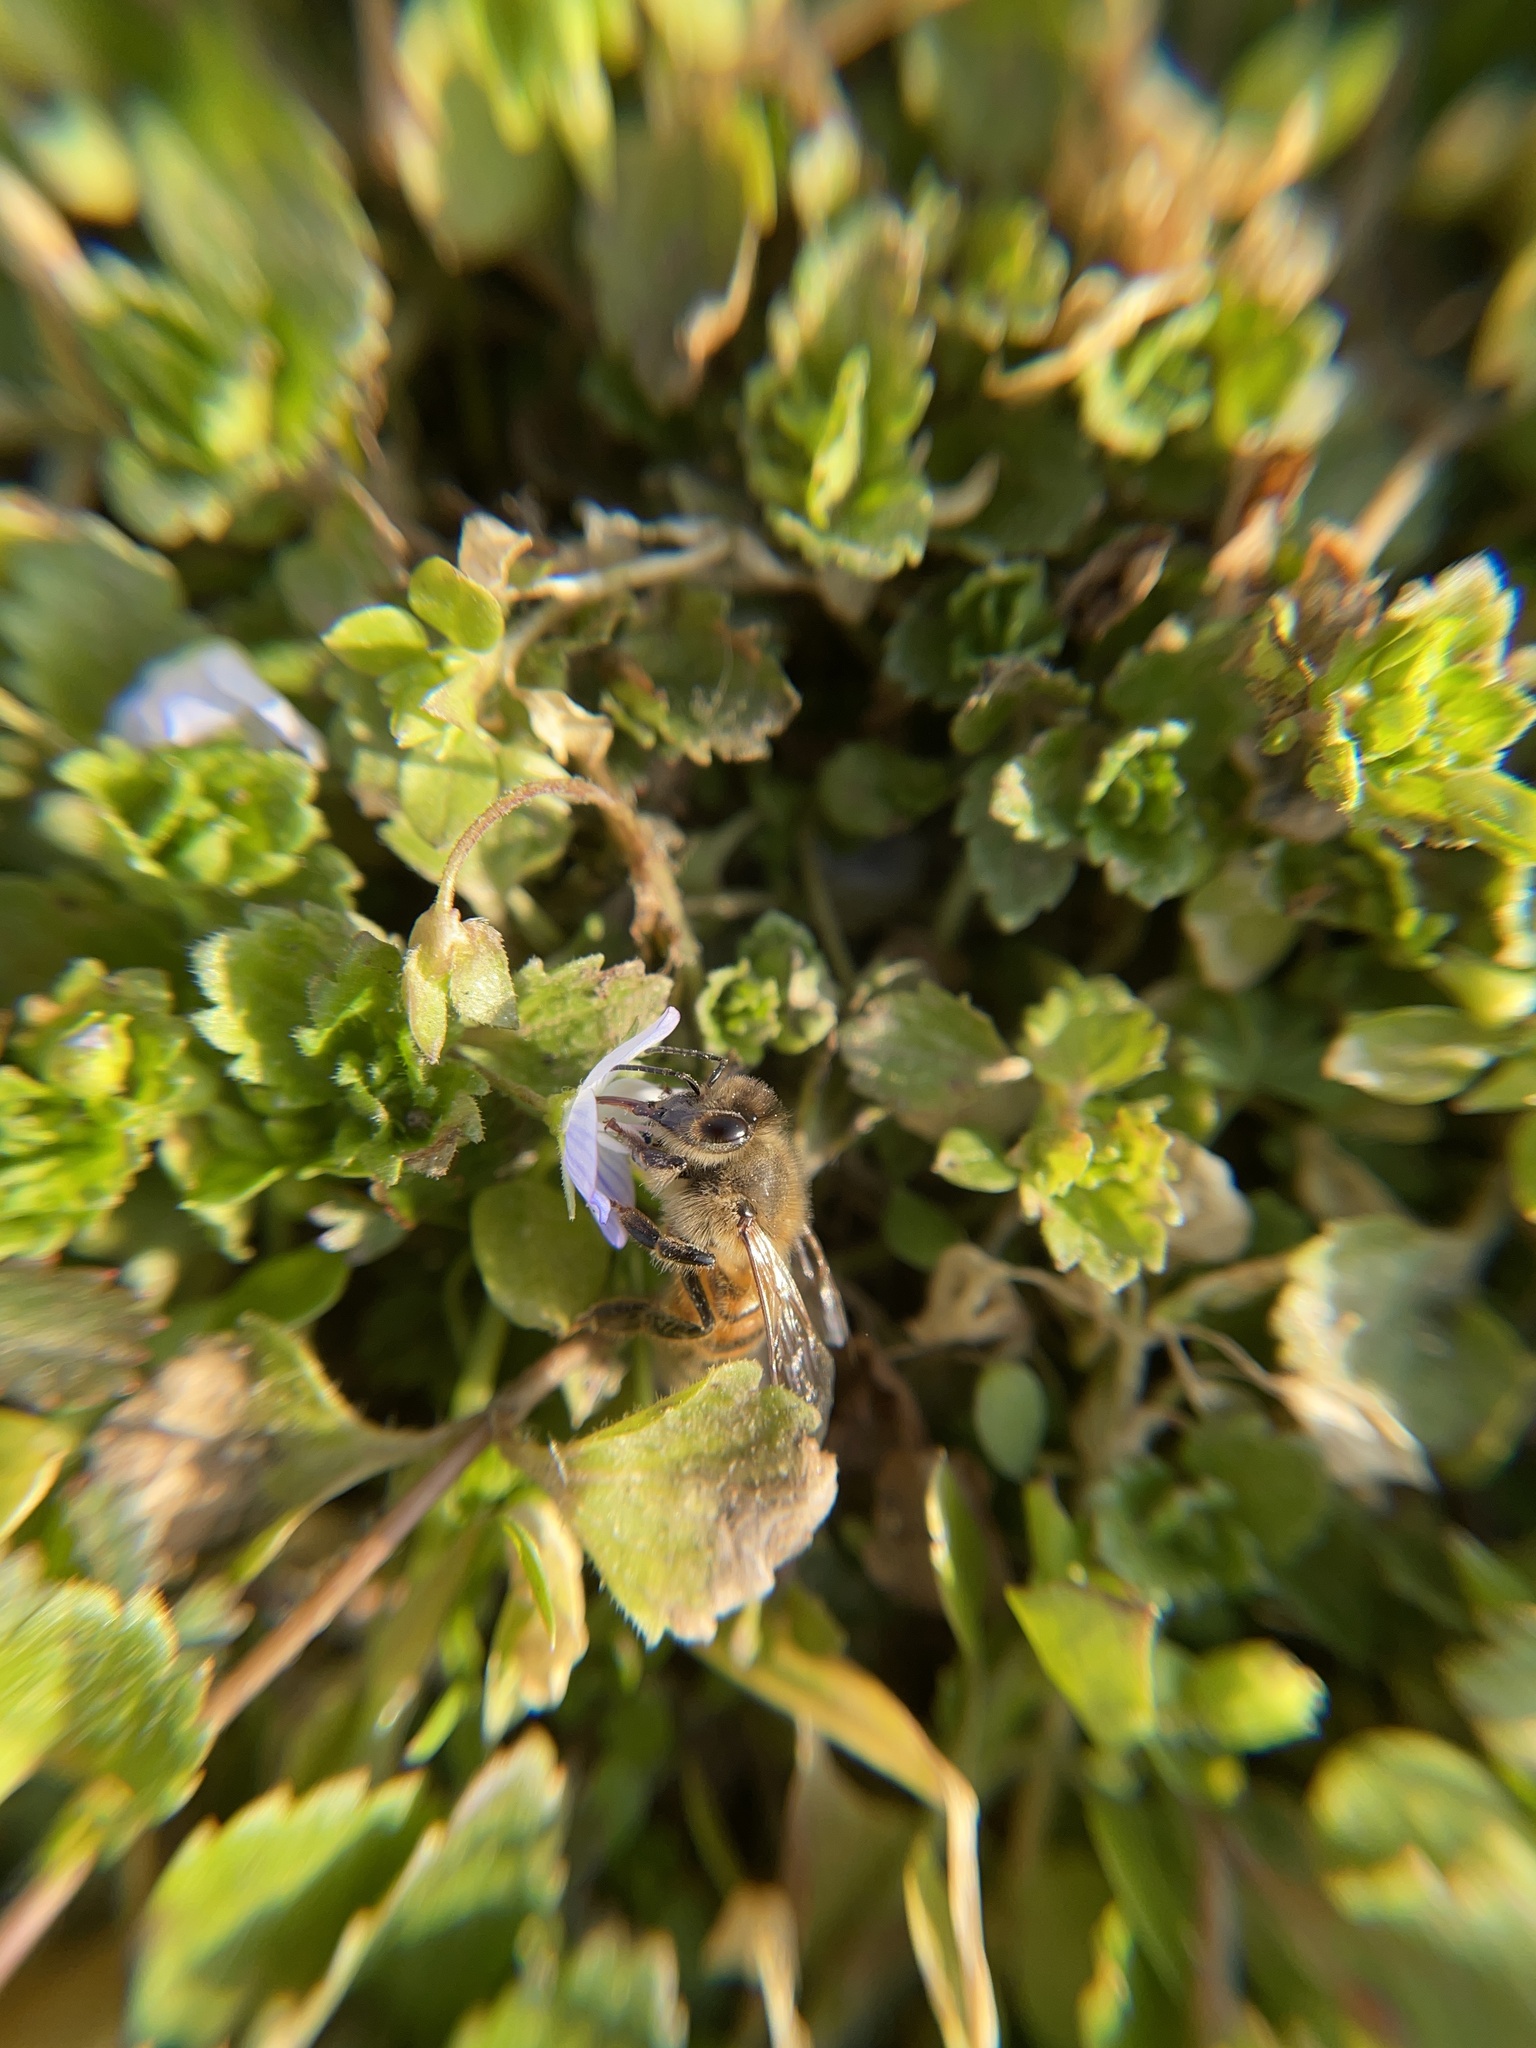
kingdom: Animalia
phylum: Arthropoda
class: Insecta
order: Hymenoptera
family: Apidae
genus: Apis
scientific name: Apis mellifera
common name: Honey bee
